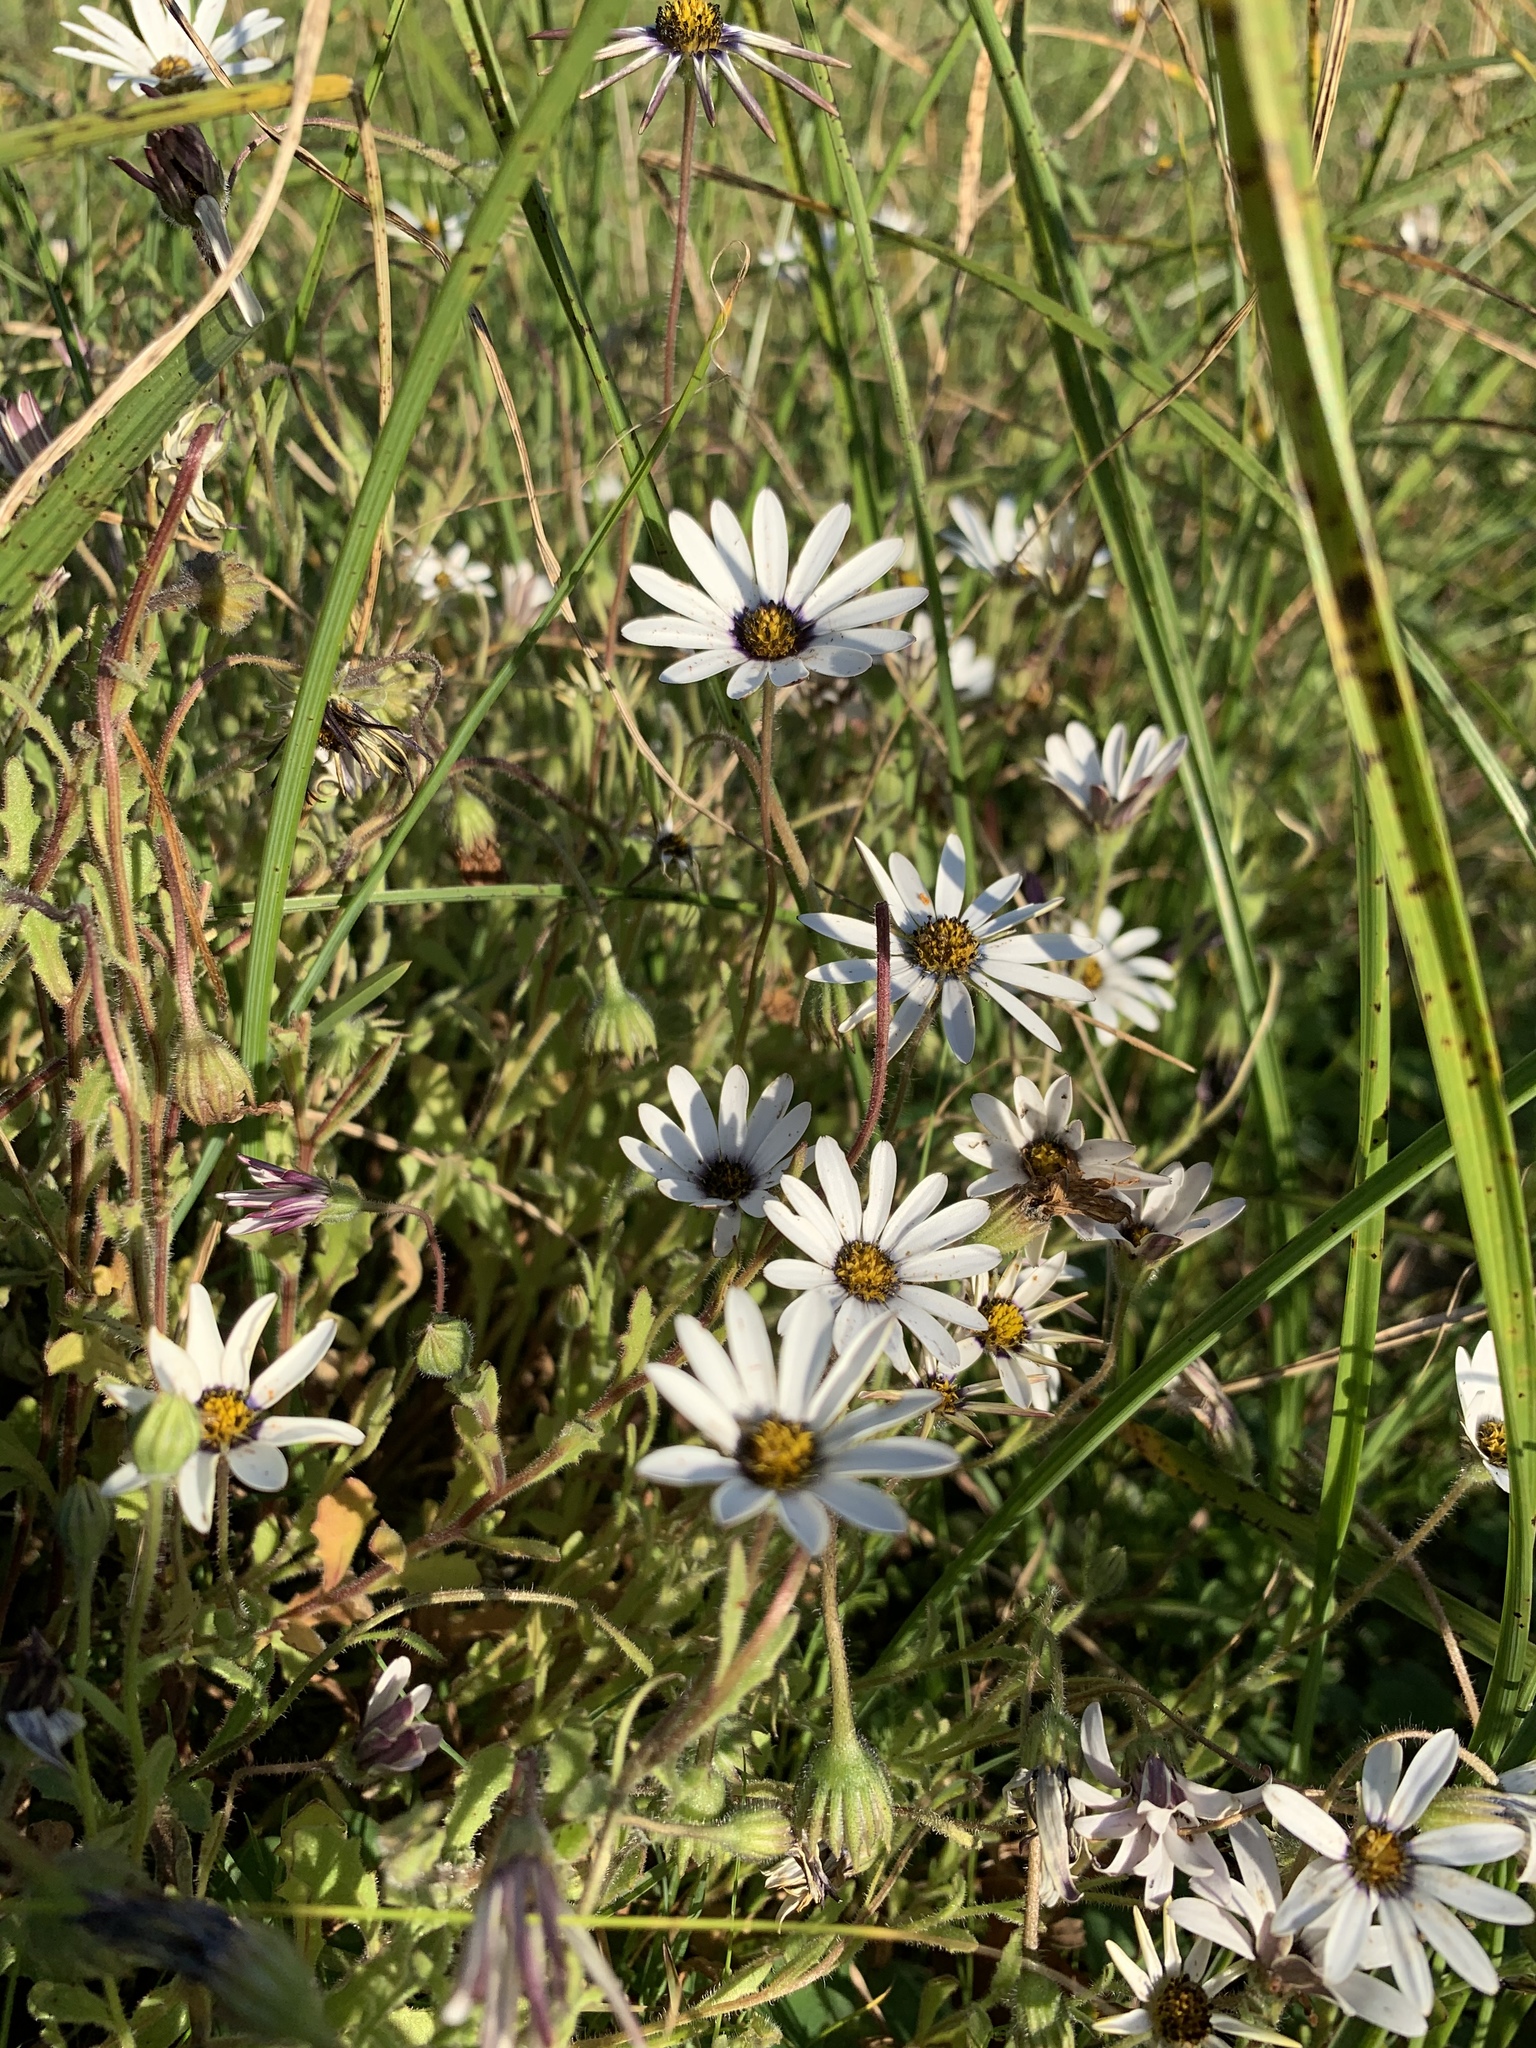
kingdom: Plantae
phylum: Tracheophyta
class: Magnoliopsida
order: Asterales
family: Asteraceae
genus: Dimorphotheca
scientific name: Dimorphotheca pluvialis
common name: Weather prophet
